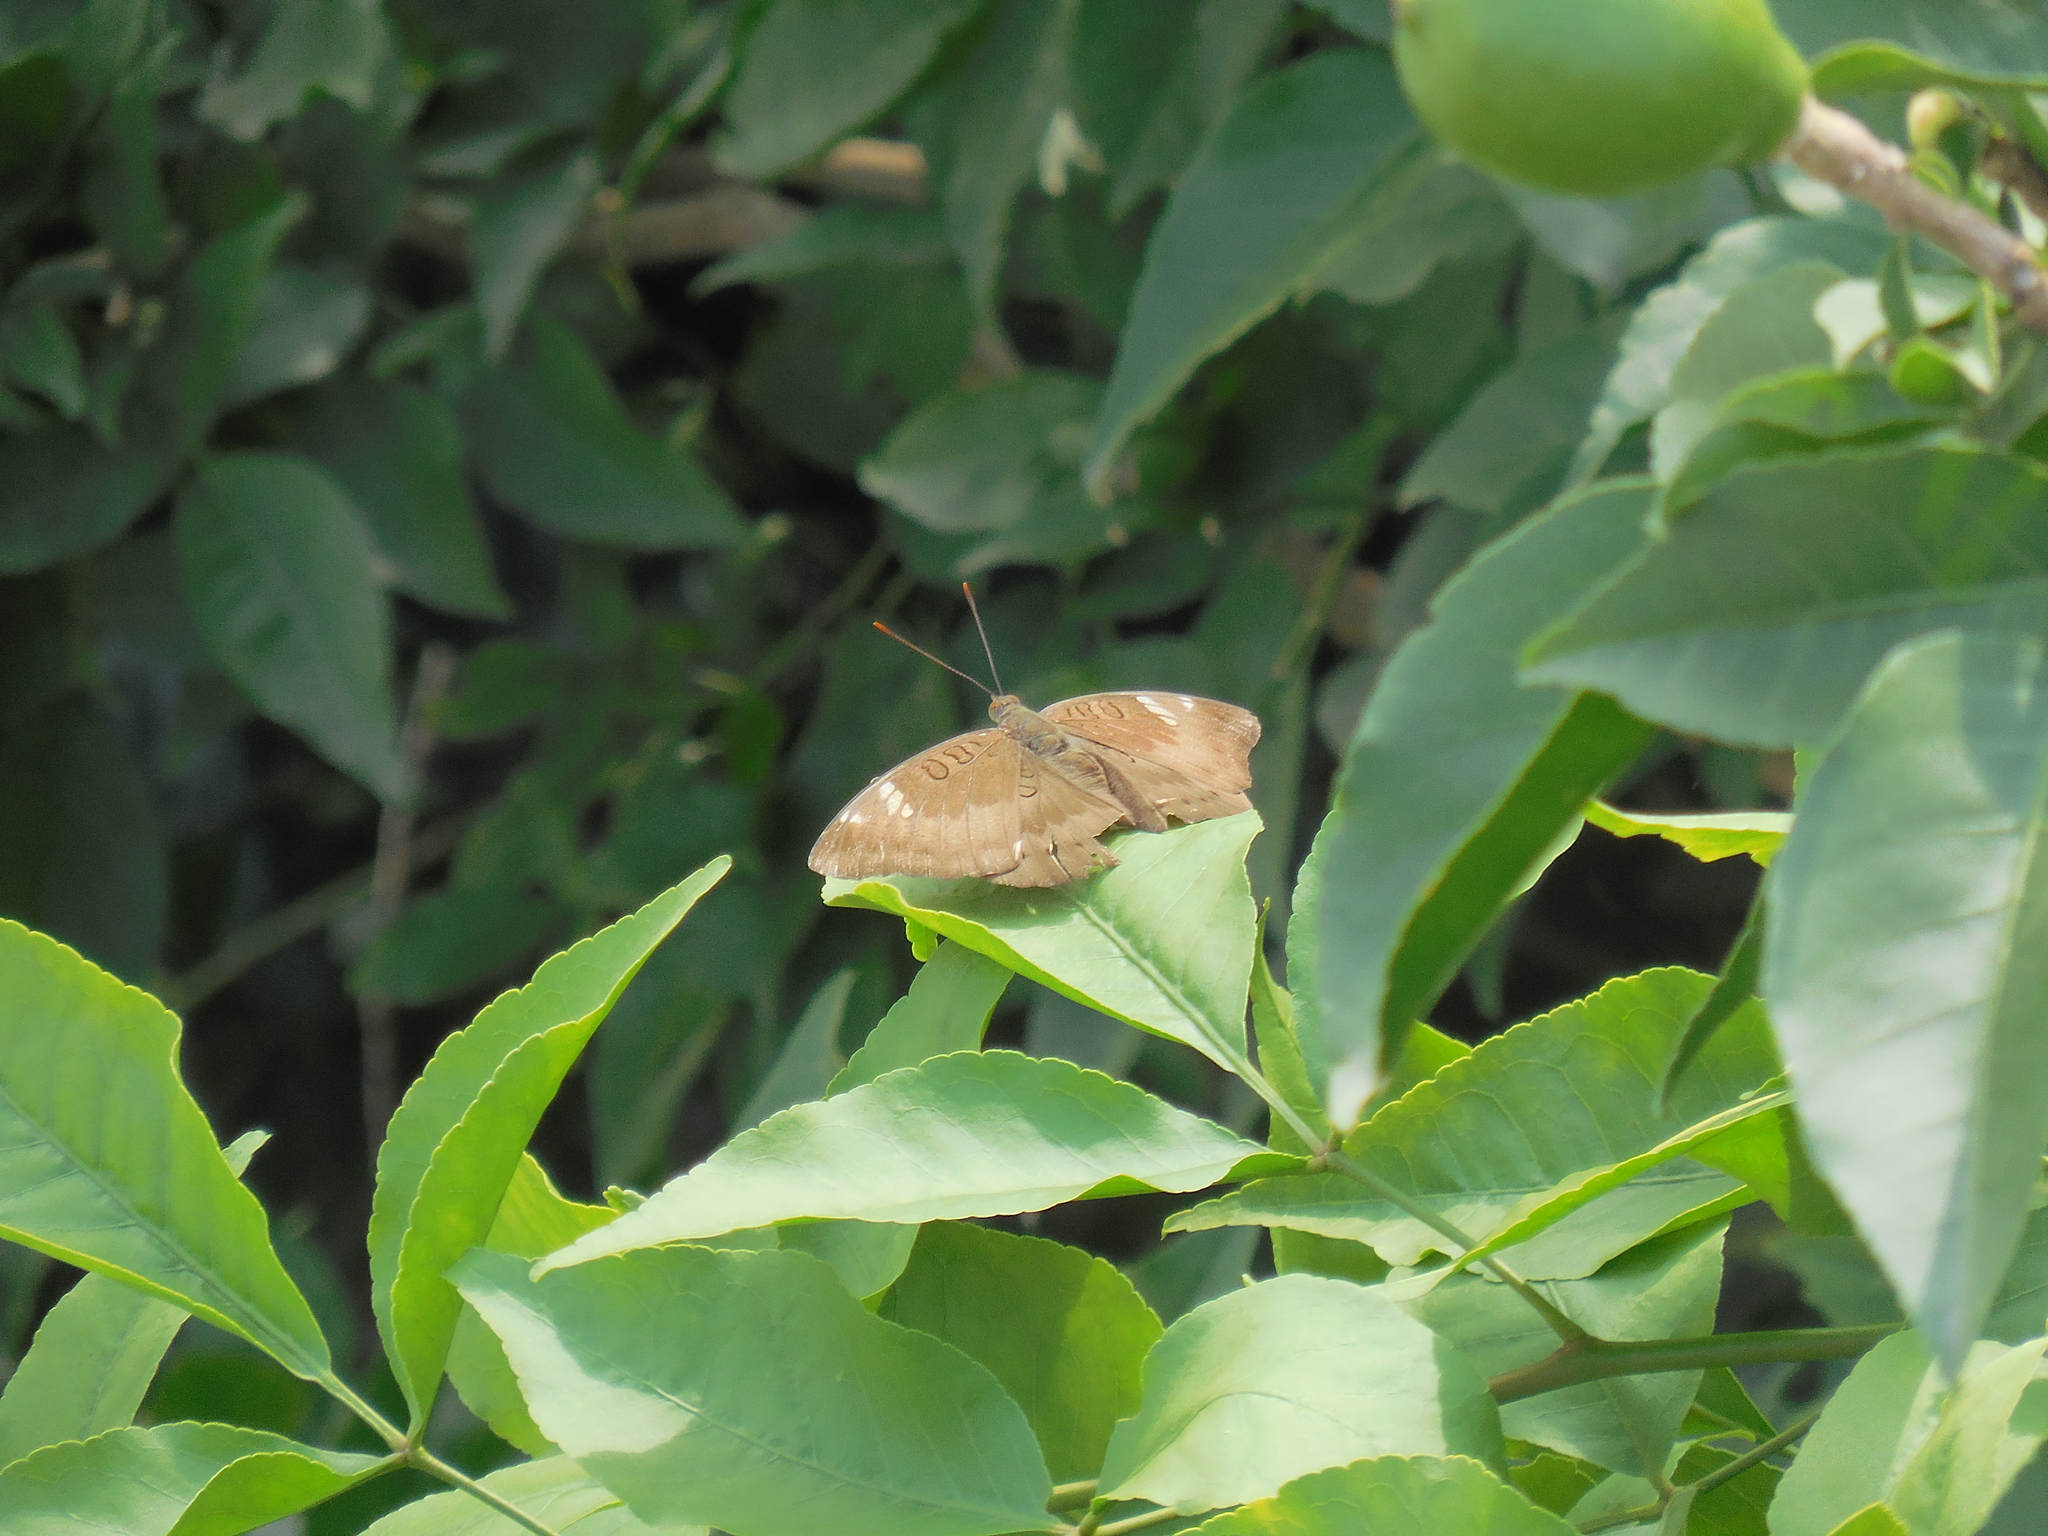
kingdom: Animalia
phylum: Arthropoda
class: Insecta
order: Lepidoptera
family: Nymphalidae
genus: Euthalia
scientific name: Euthalia aconthea
